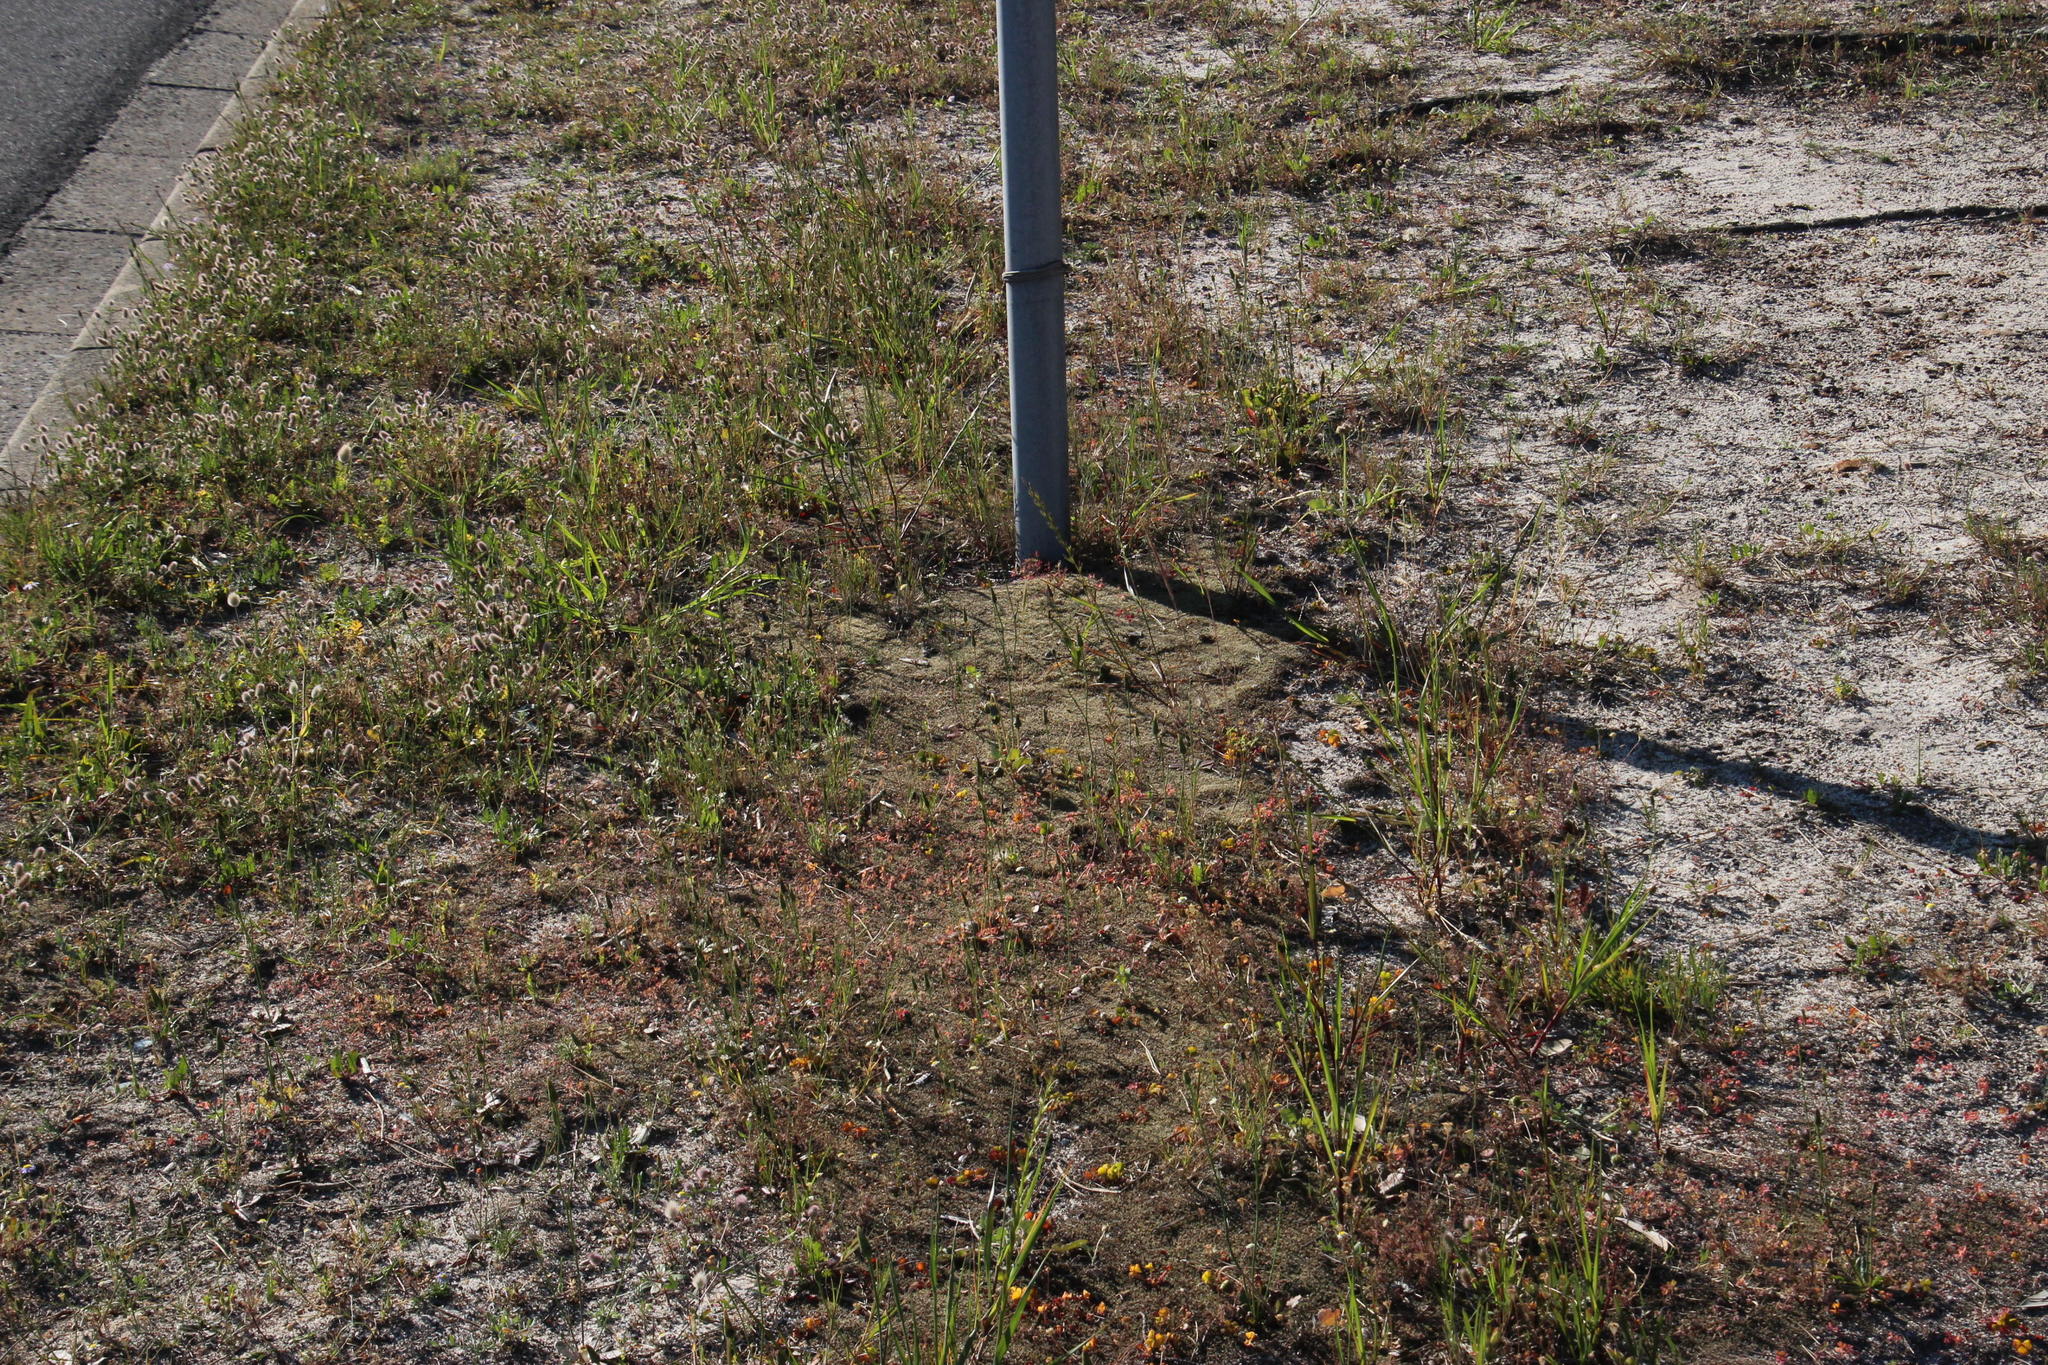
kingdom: Plantae
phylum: Bryophyta
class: Bryopsida
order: Pottiales
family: Pottiaceae
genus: Pseudocrossidium
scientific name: Pseudocrossidium crinitum
